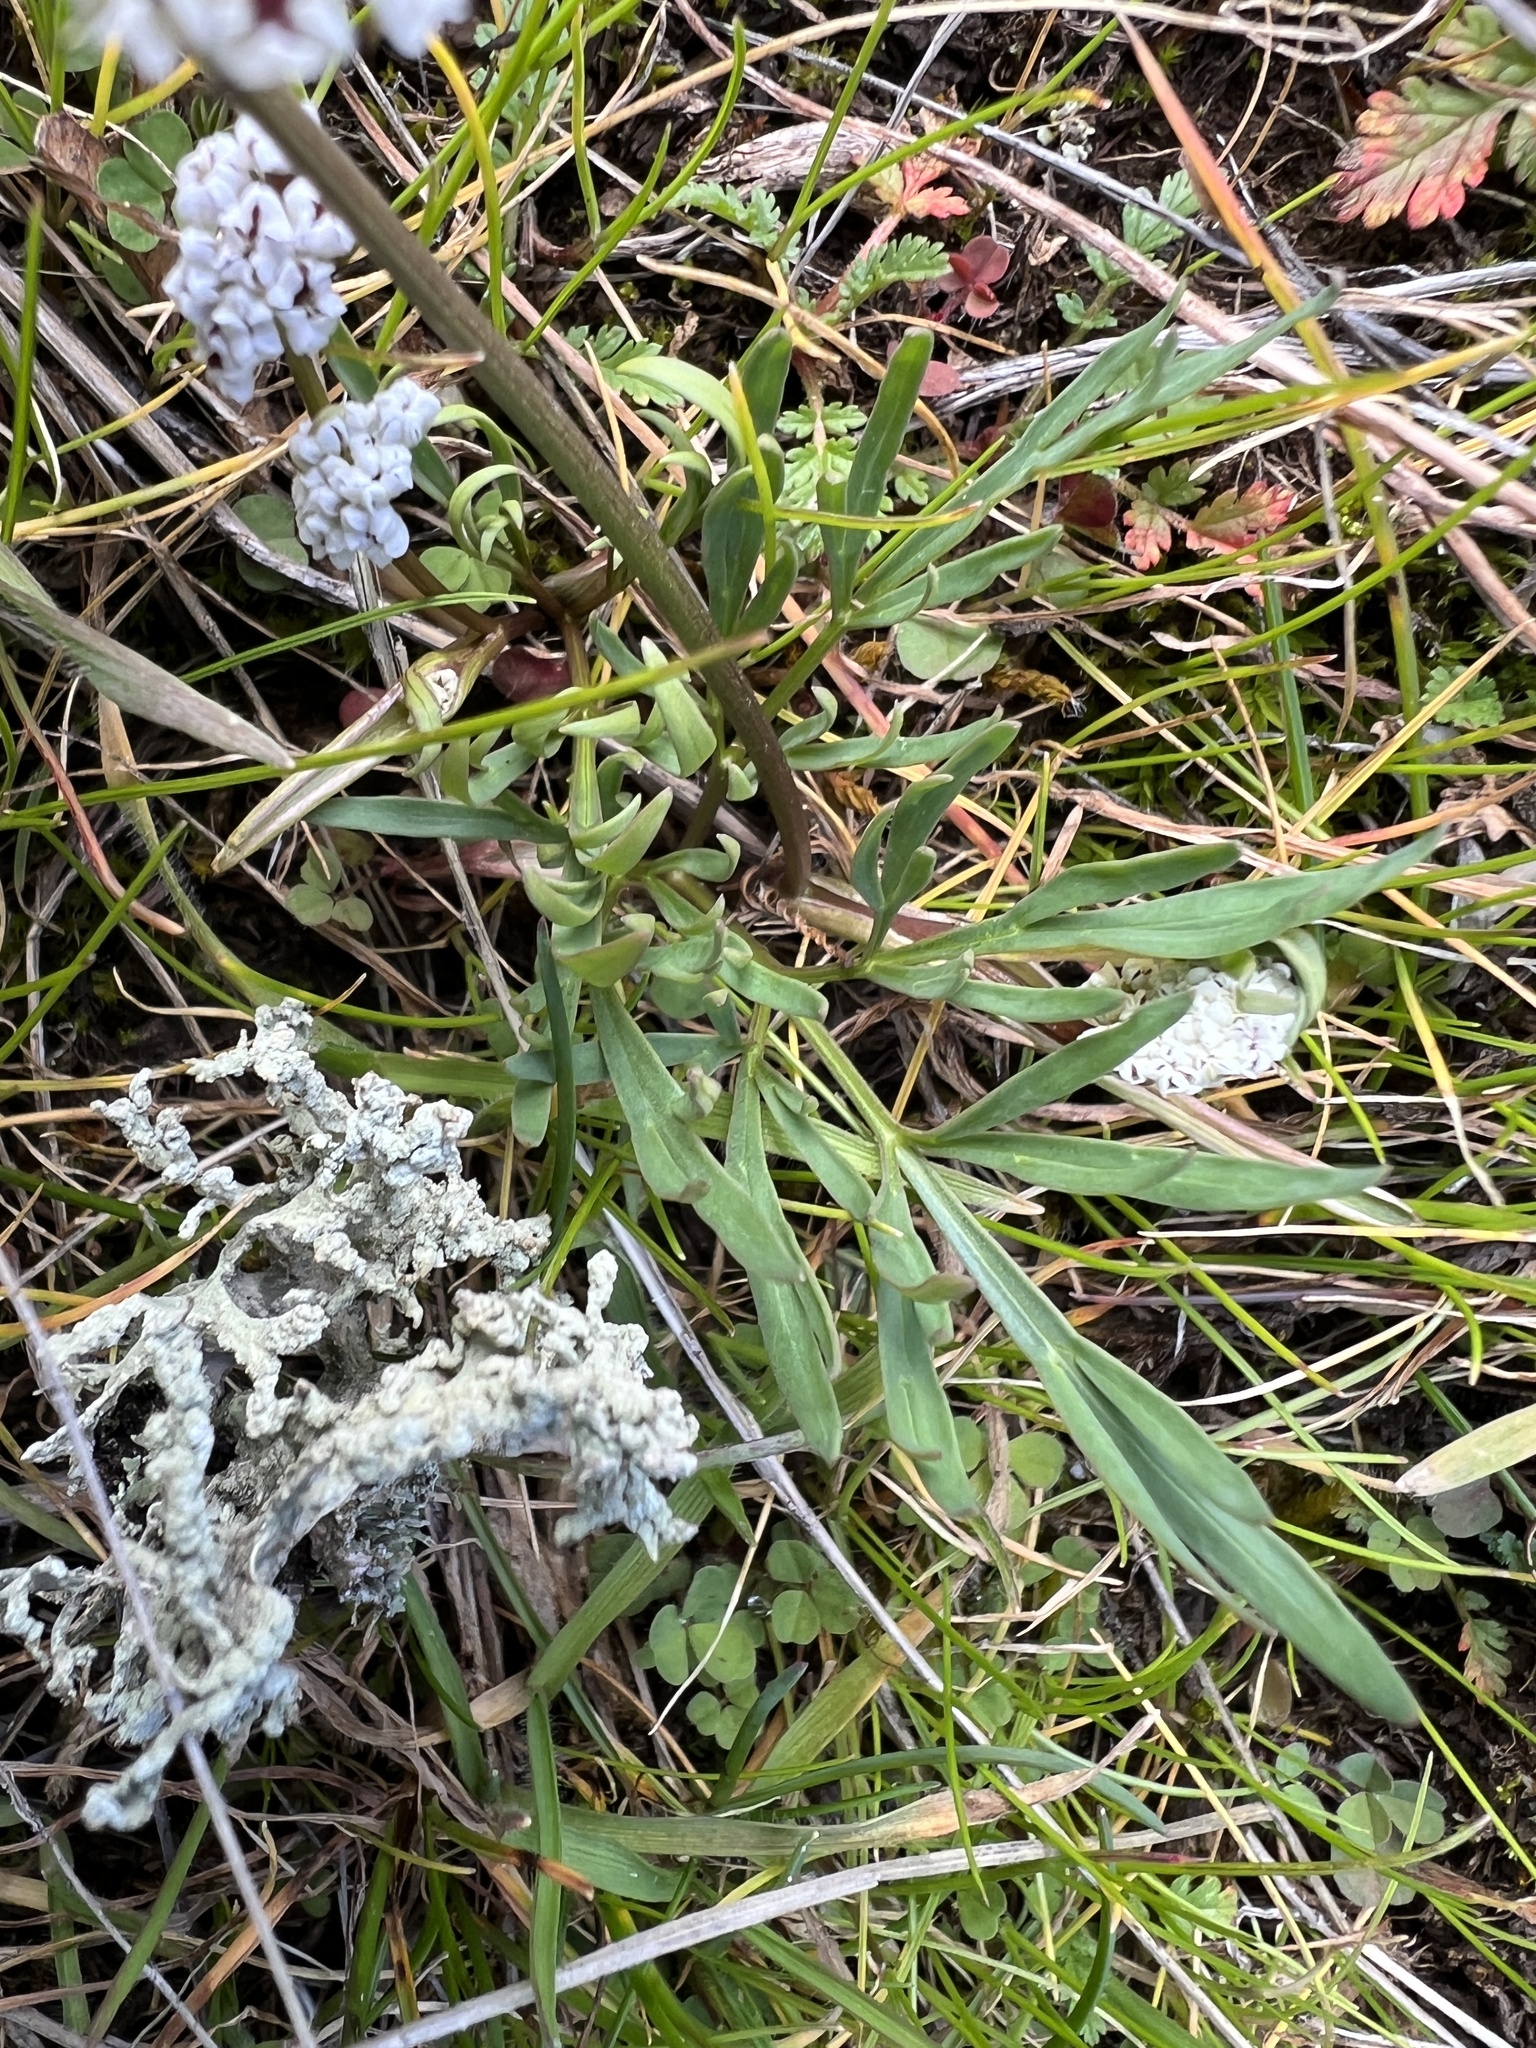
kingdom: Plantae
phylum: Tracheophyta
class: Magnoliopsida
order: Apiales
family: Apiaceae
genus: Lomatium
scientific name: Lomatium gormanii
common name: Gorman's biscuitroot
